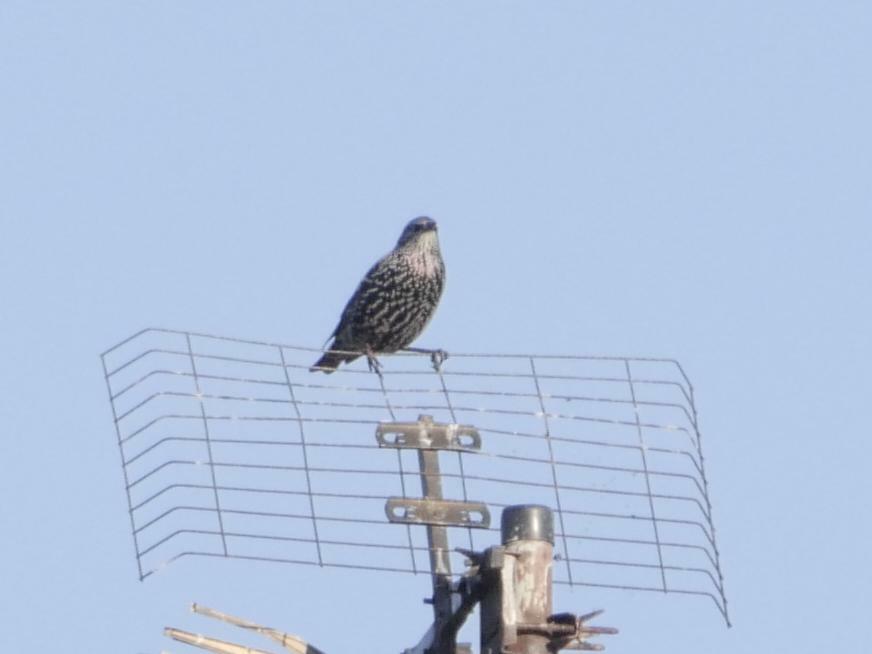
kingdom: Animalia
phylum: Chordata
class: Aves
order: Passeriformes
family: Sturnidae
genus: Sturnus
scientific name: Sturnus vulgaris
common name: Common starling
